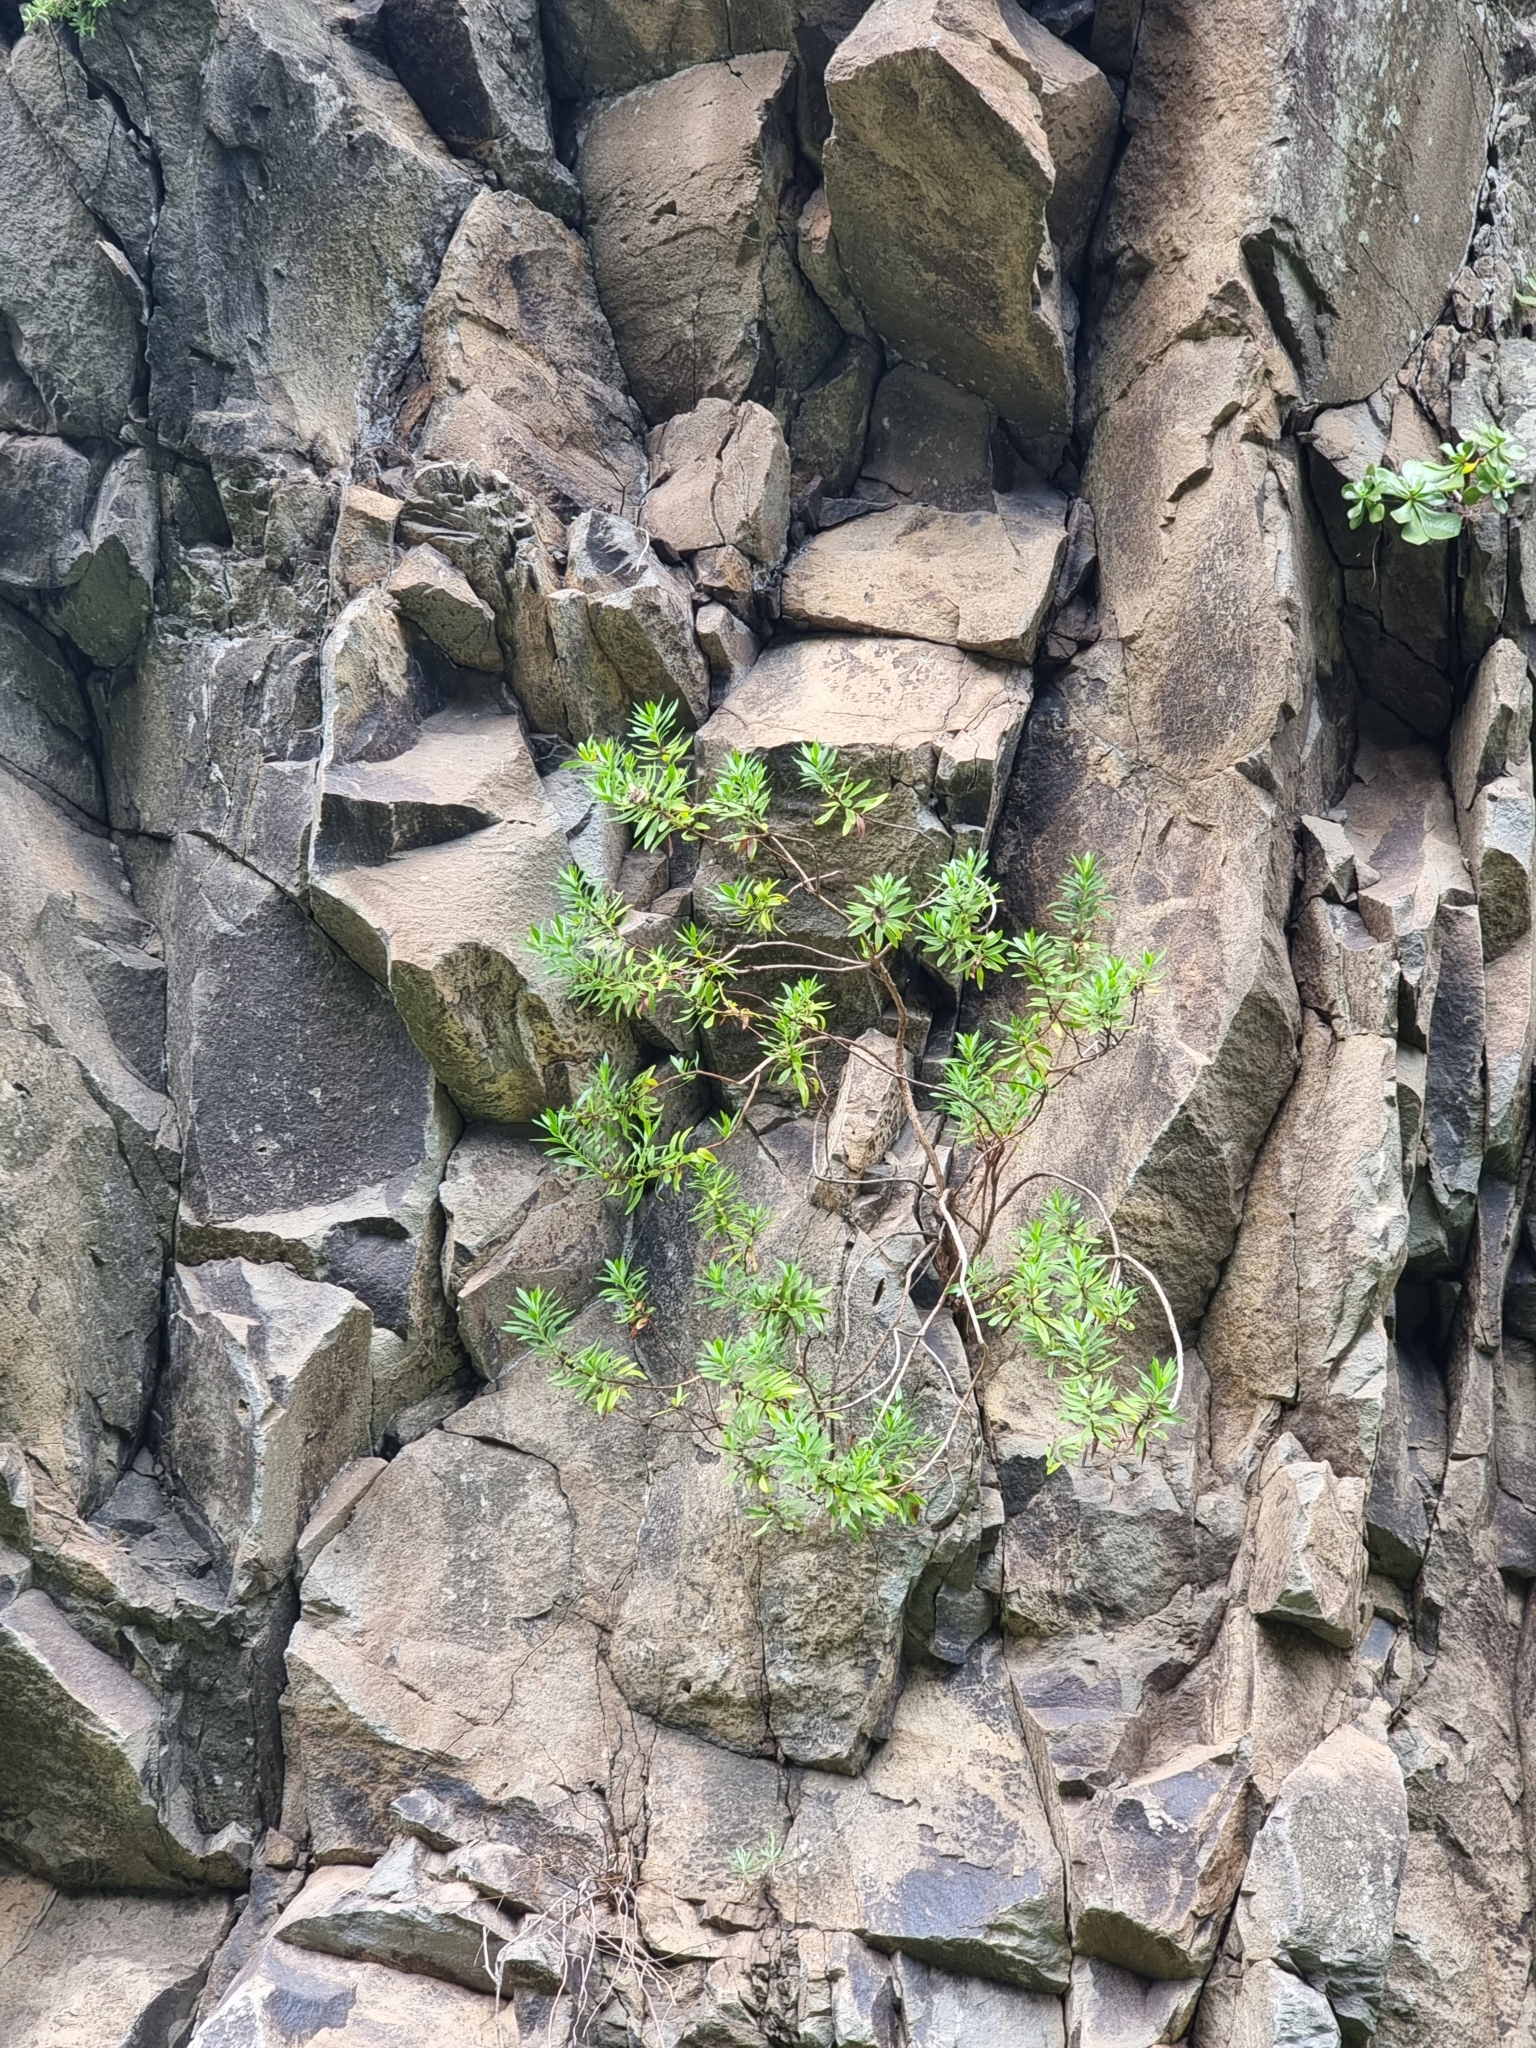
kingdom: Plantae
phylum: Tracheophyta
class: Magnoliopsida
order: Lamiales
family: Plantaginaceae
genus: Globularia
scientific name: Globularia salicina
